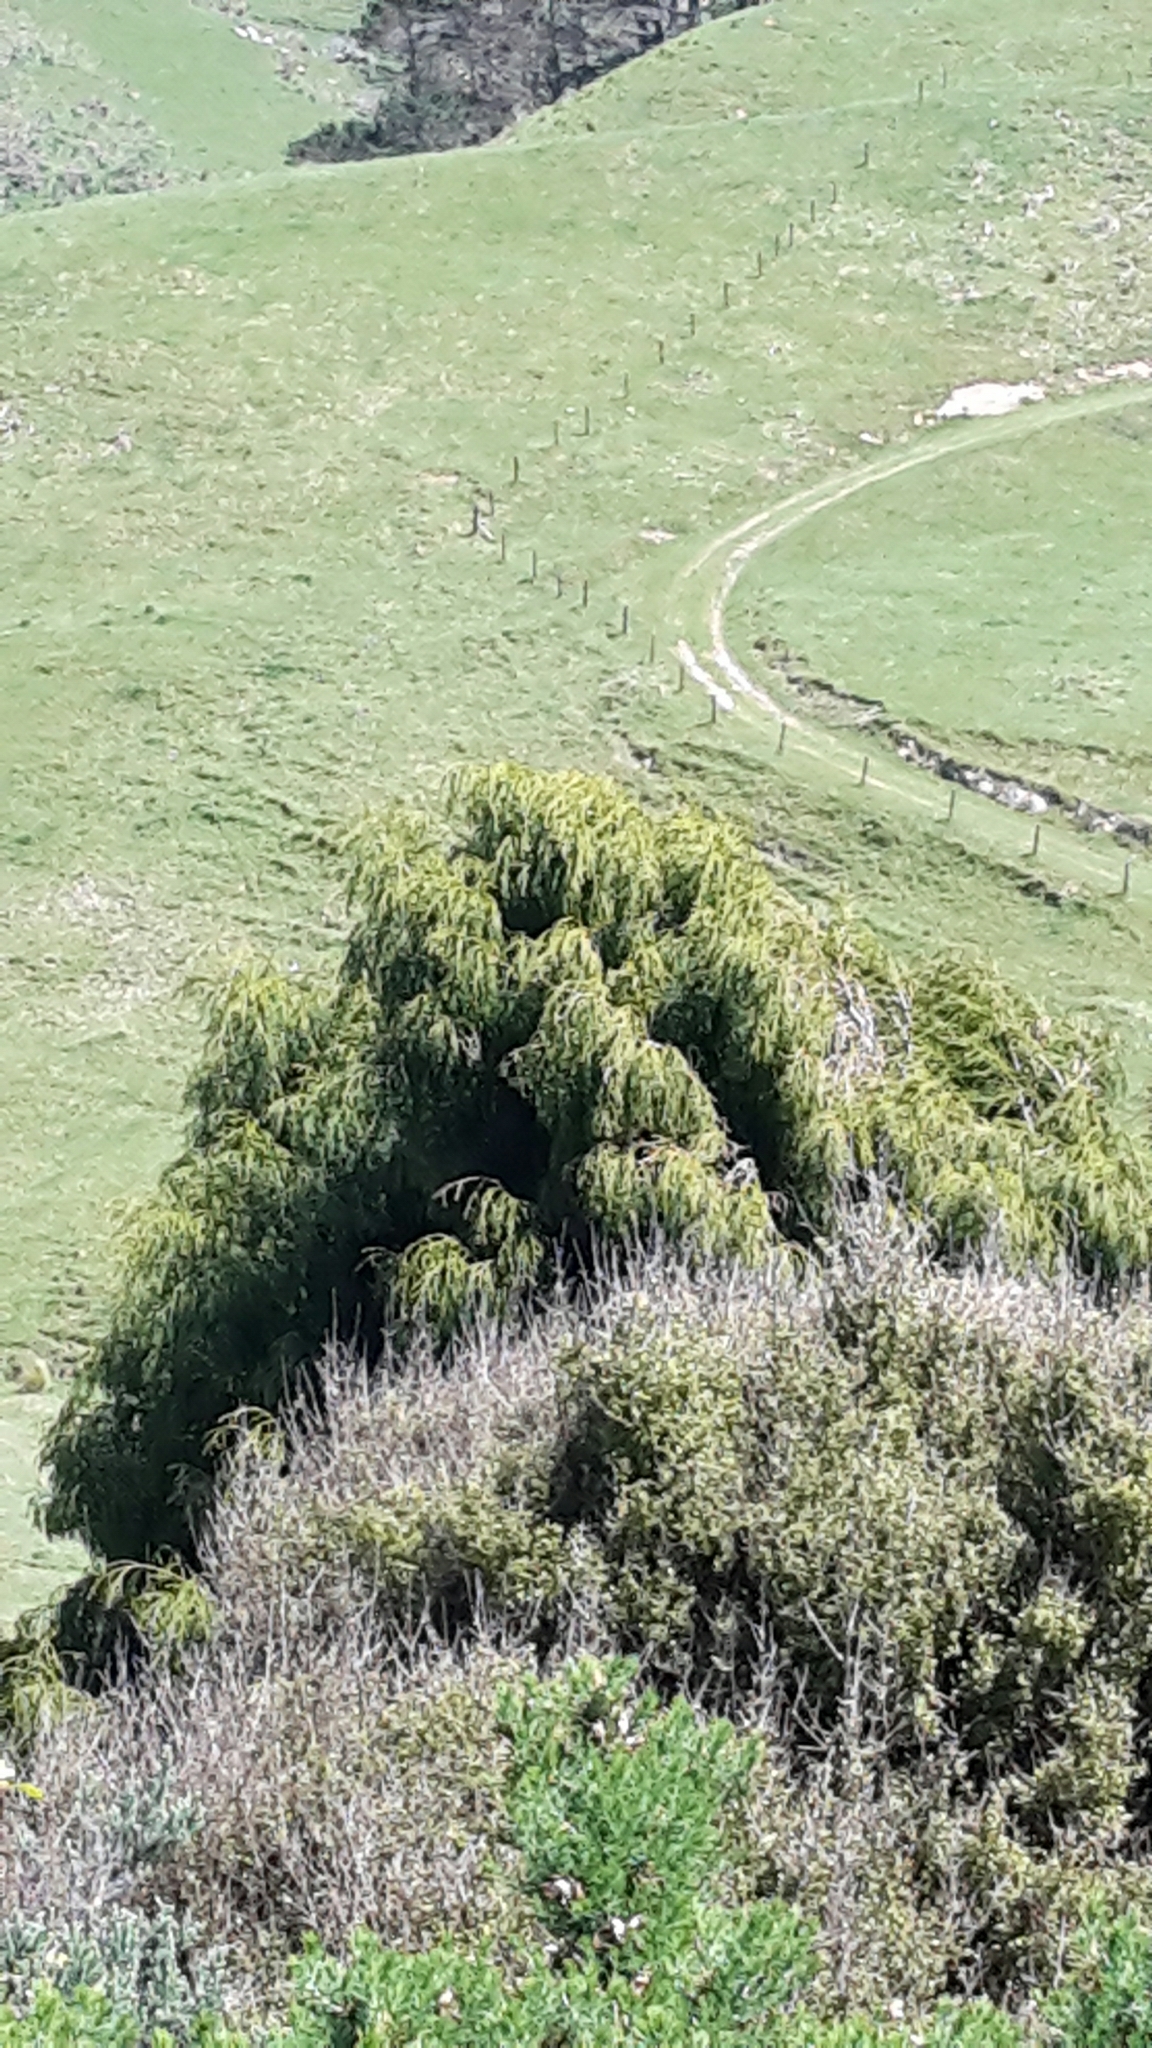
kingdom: Plantae
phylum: Tracheophyta
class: Pinopsida
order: Pinales
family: Podocarpaceae
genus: Dacrydium
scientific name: Dacrydium cupressinum
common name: Red pine
